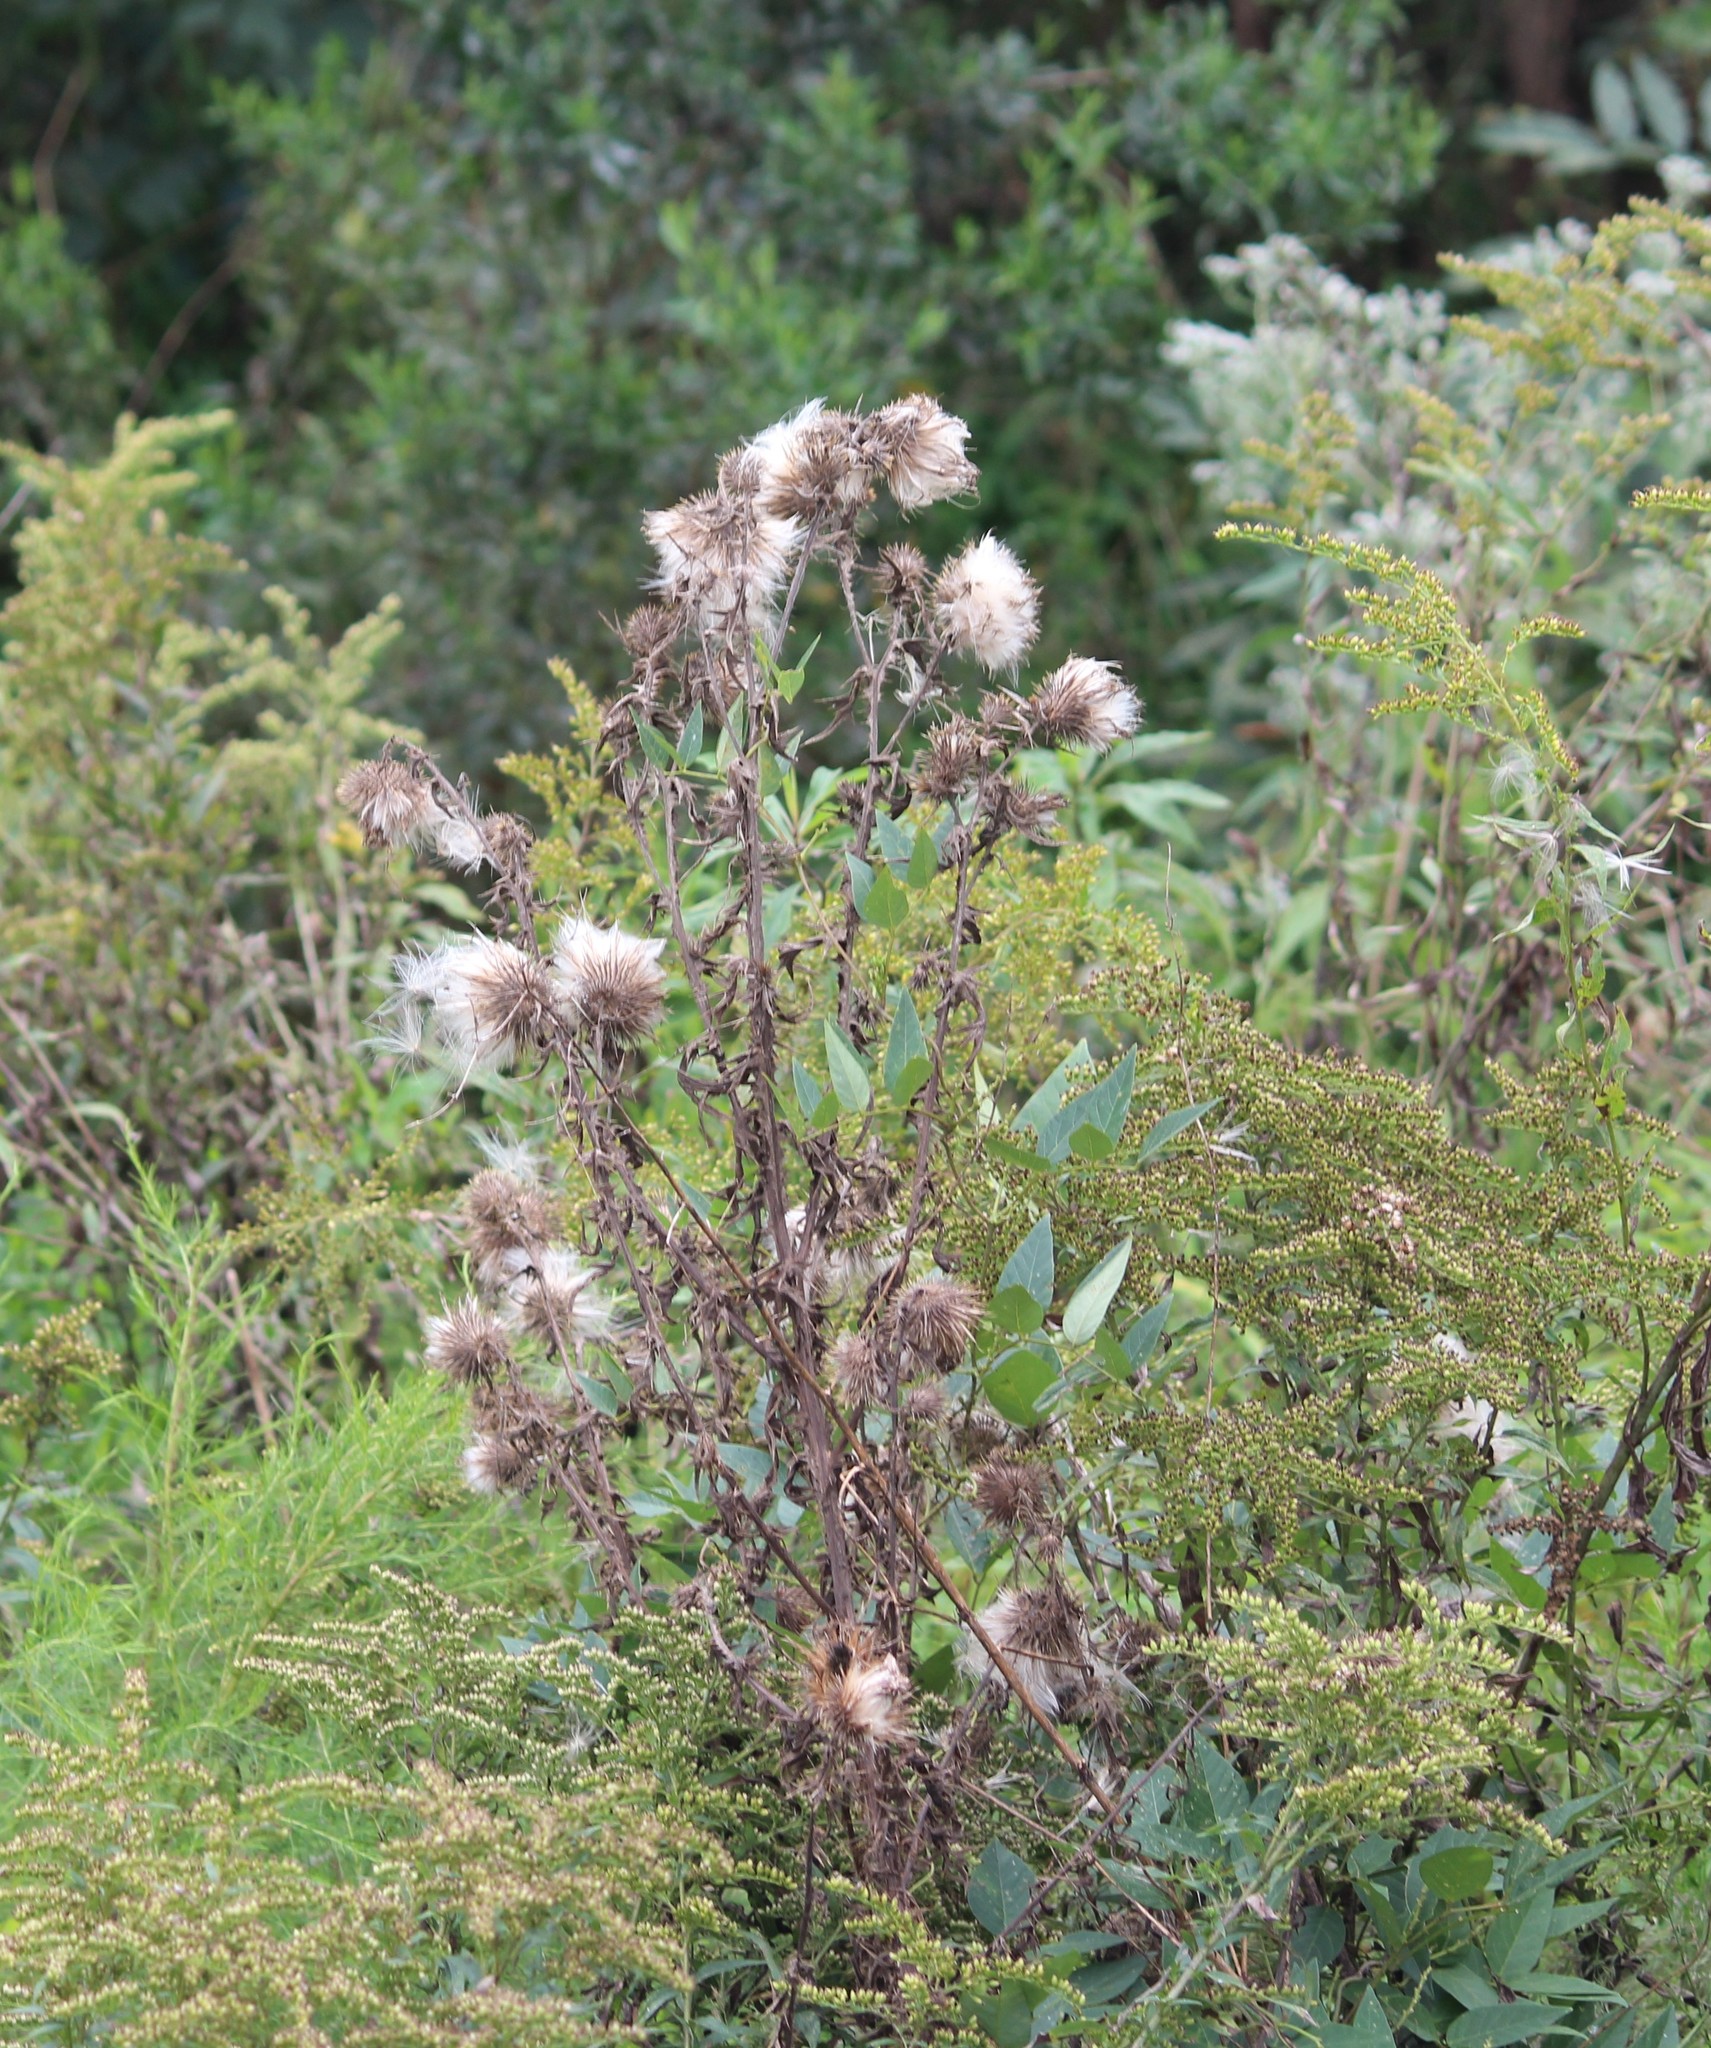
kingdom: Plantae
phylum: Tracheophyta
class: Magnoliopsida
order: Asterales
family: Asteraceae
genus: Cirsium
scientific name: Cirsium vulgare
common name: Bull thistle
